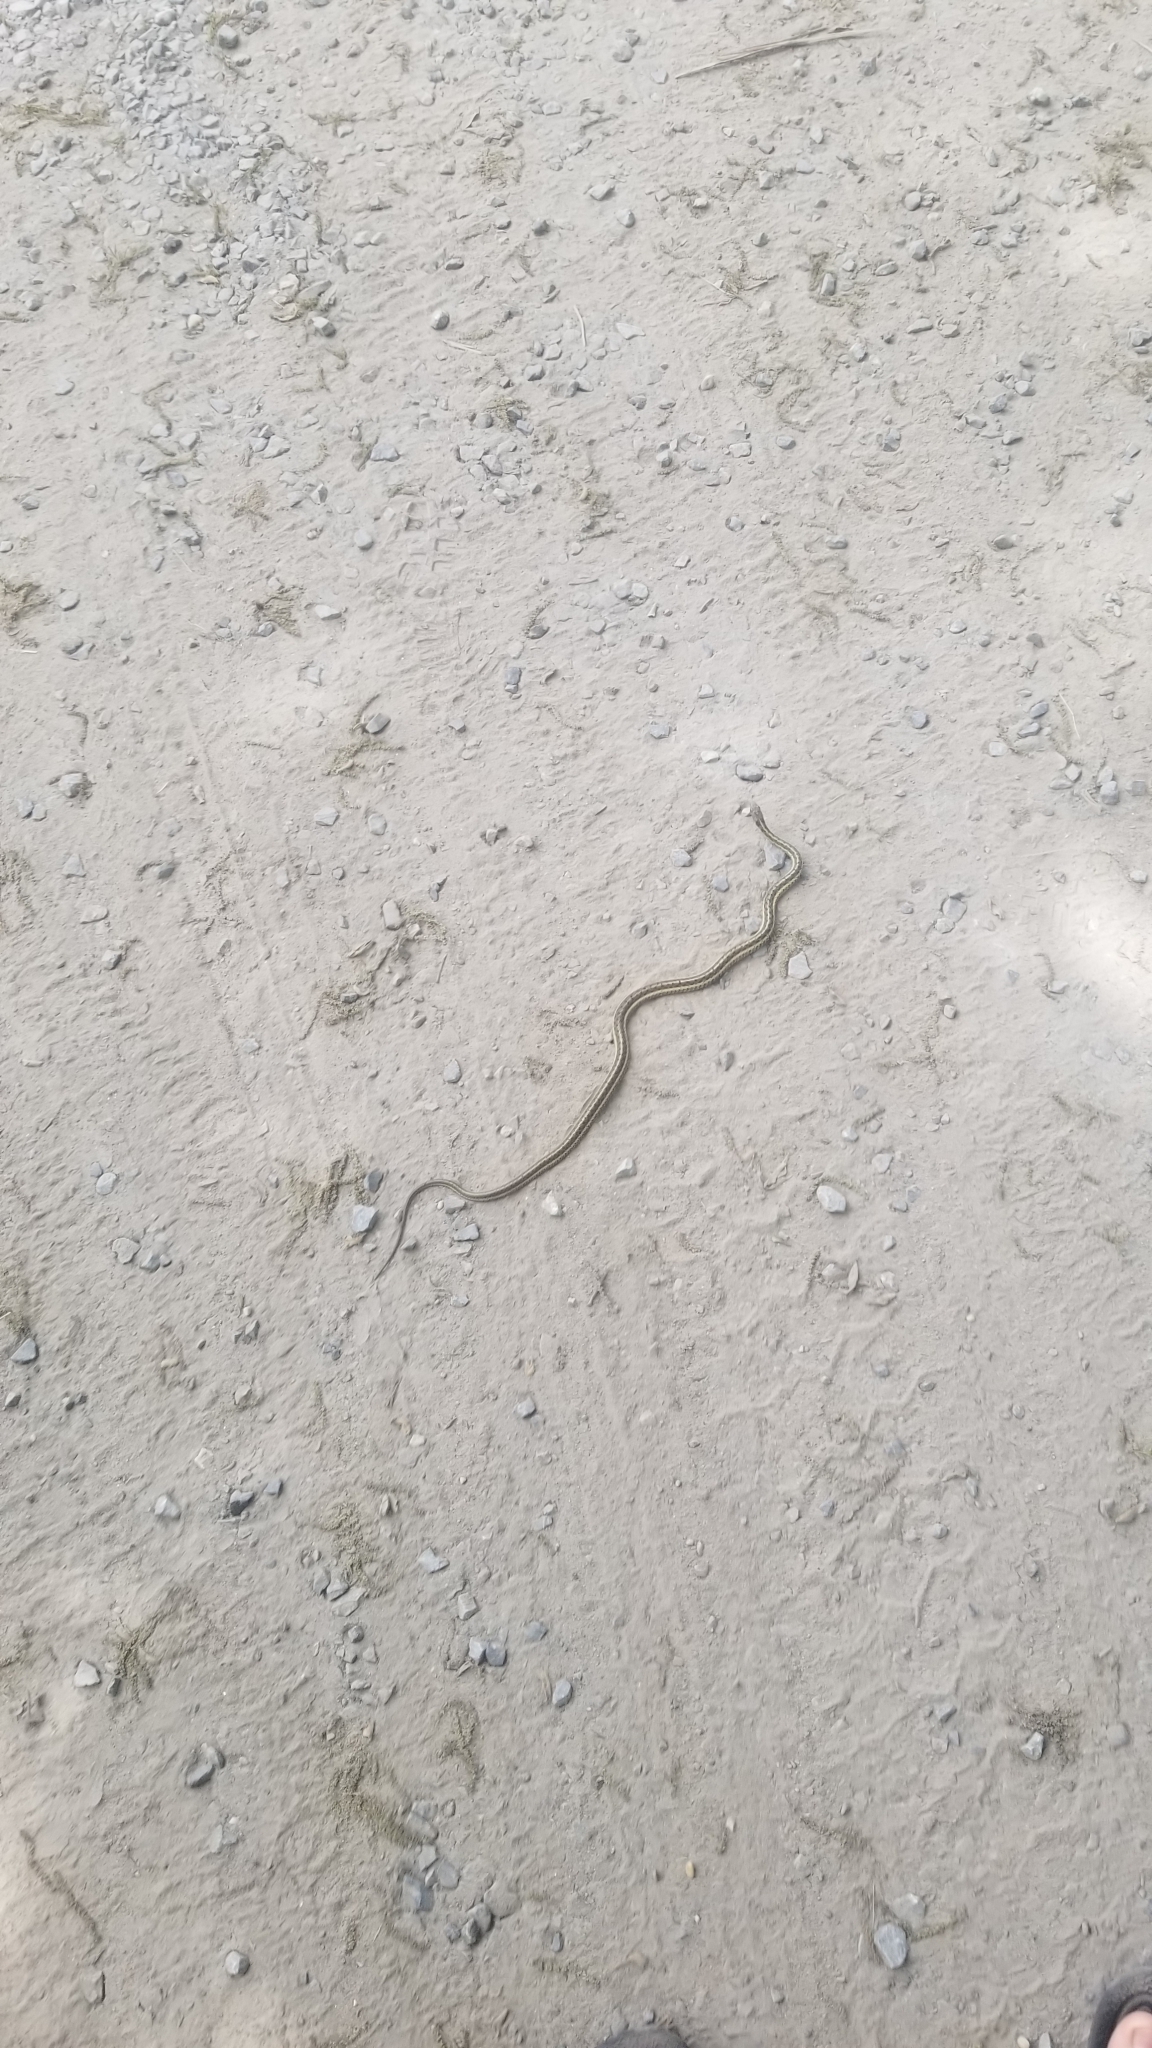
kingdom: Animalia
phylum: Chordata
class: Squamata
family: Colubridae
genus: Thamnophis
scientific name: Thamnophis sirtalis
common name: Common garter snake
